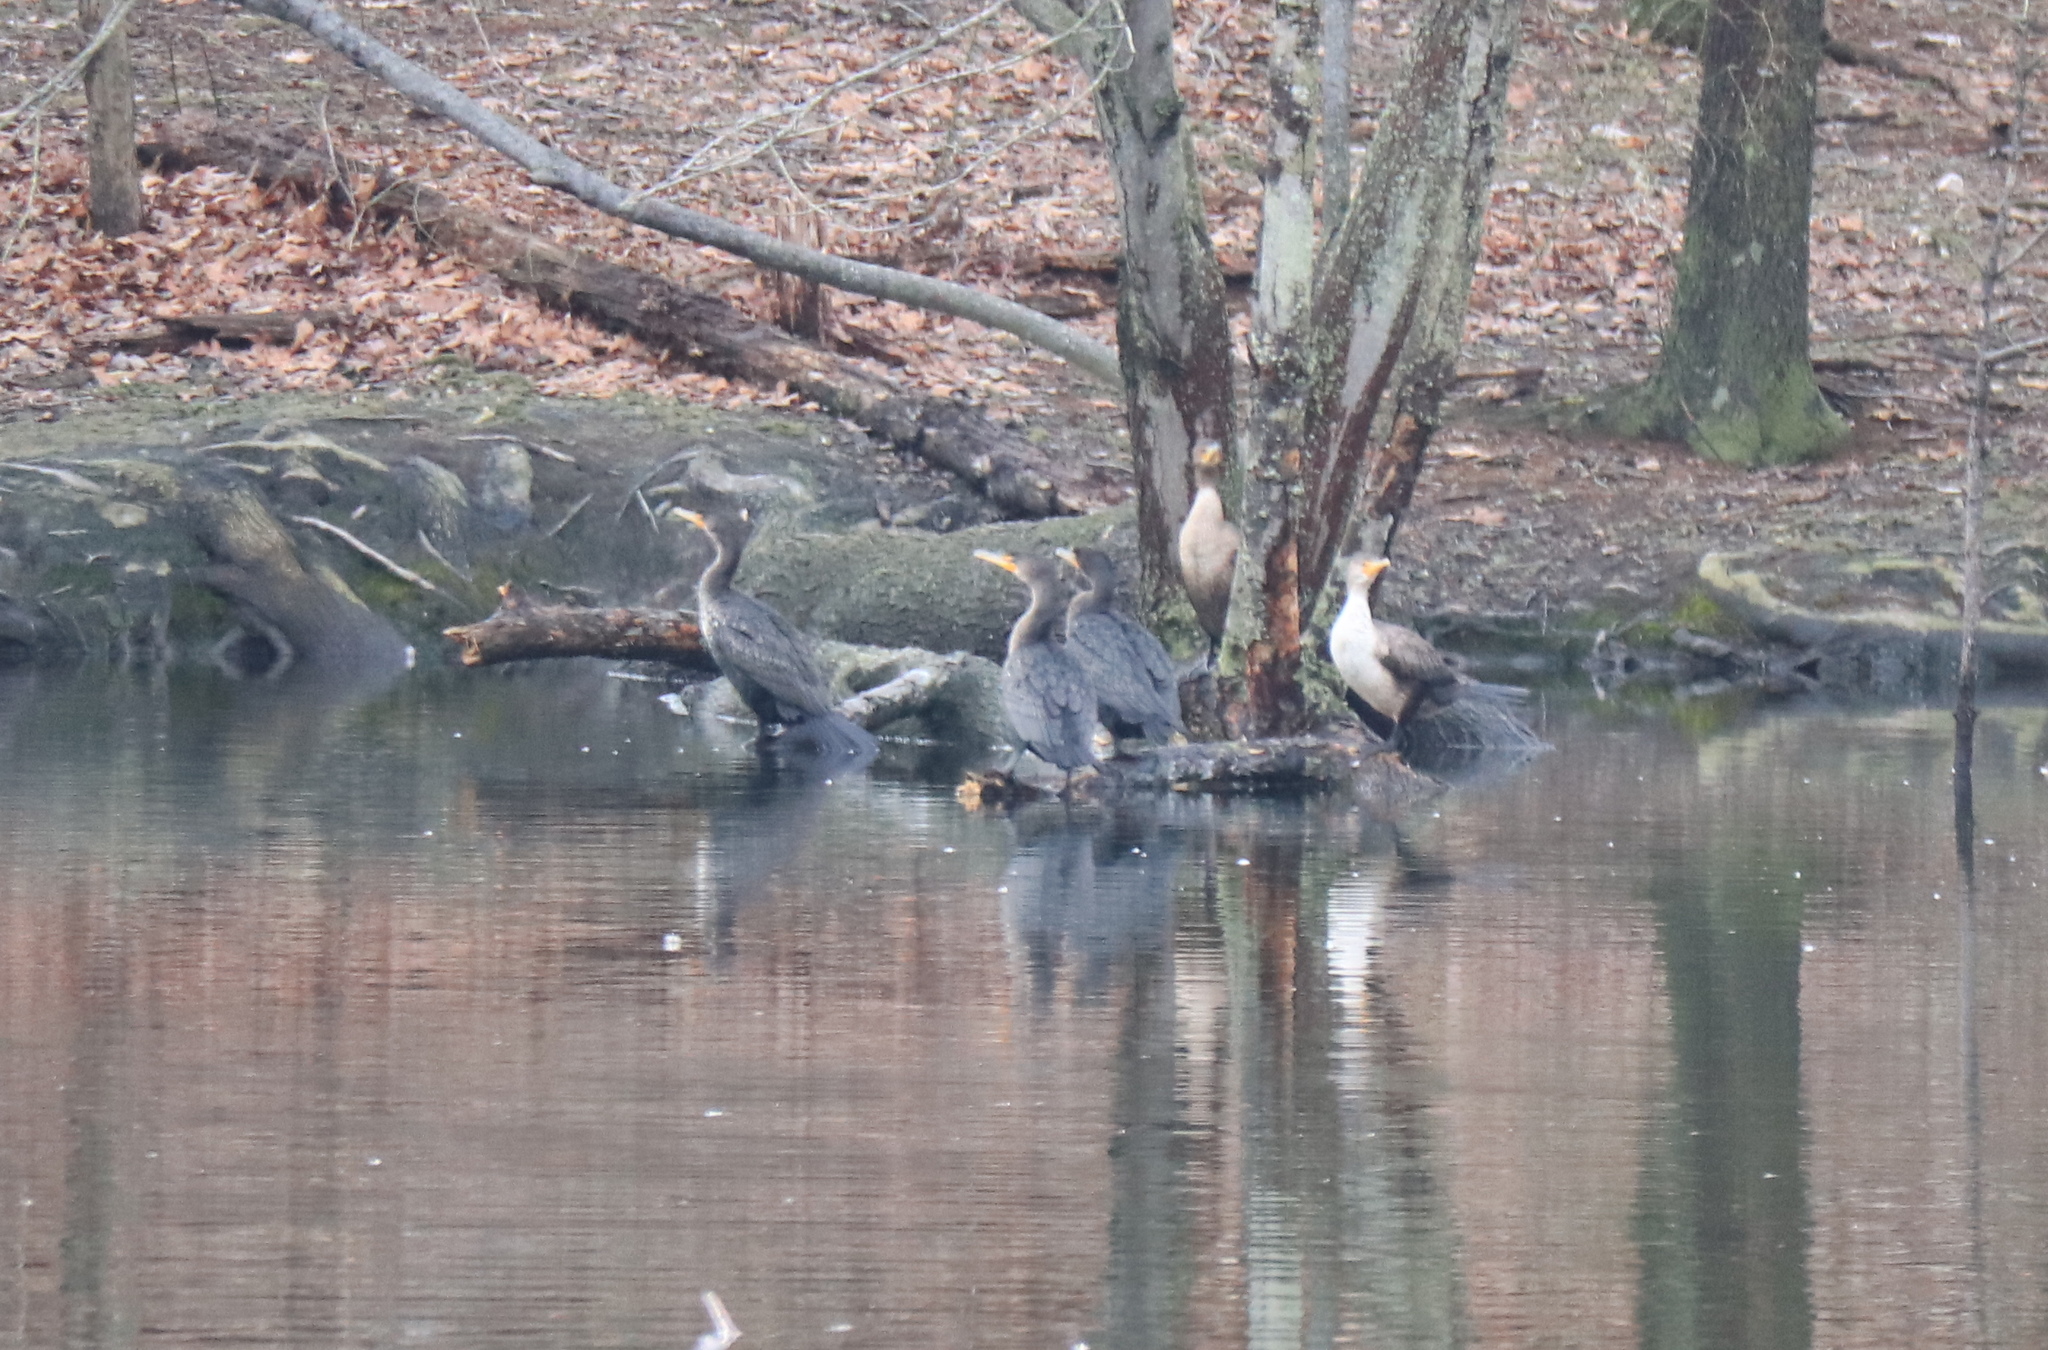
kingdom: Animalia
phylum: Chordata
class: Aves
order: Suliformes
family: Phalacrocoracidae
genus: Phalacrocorax
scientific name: Phalacrocorax auritus
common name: Double-crested cormorant
